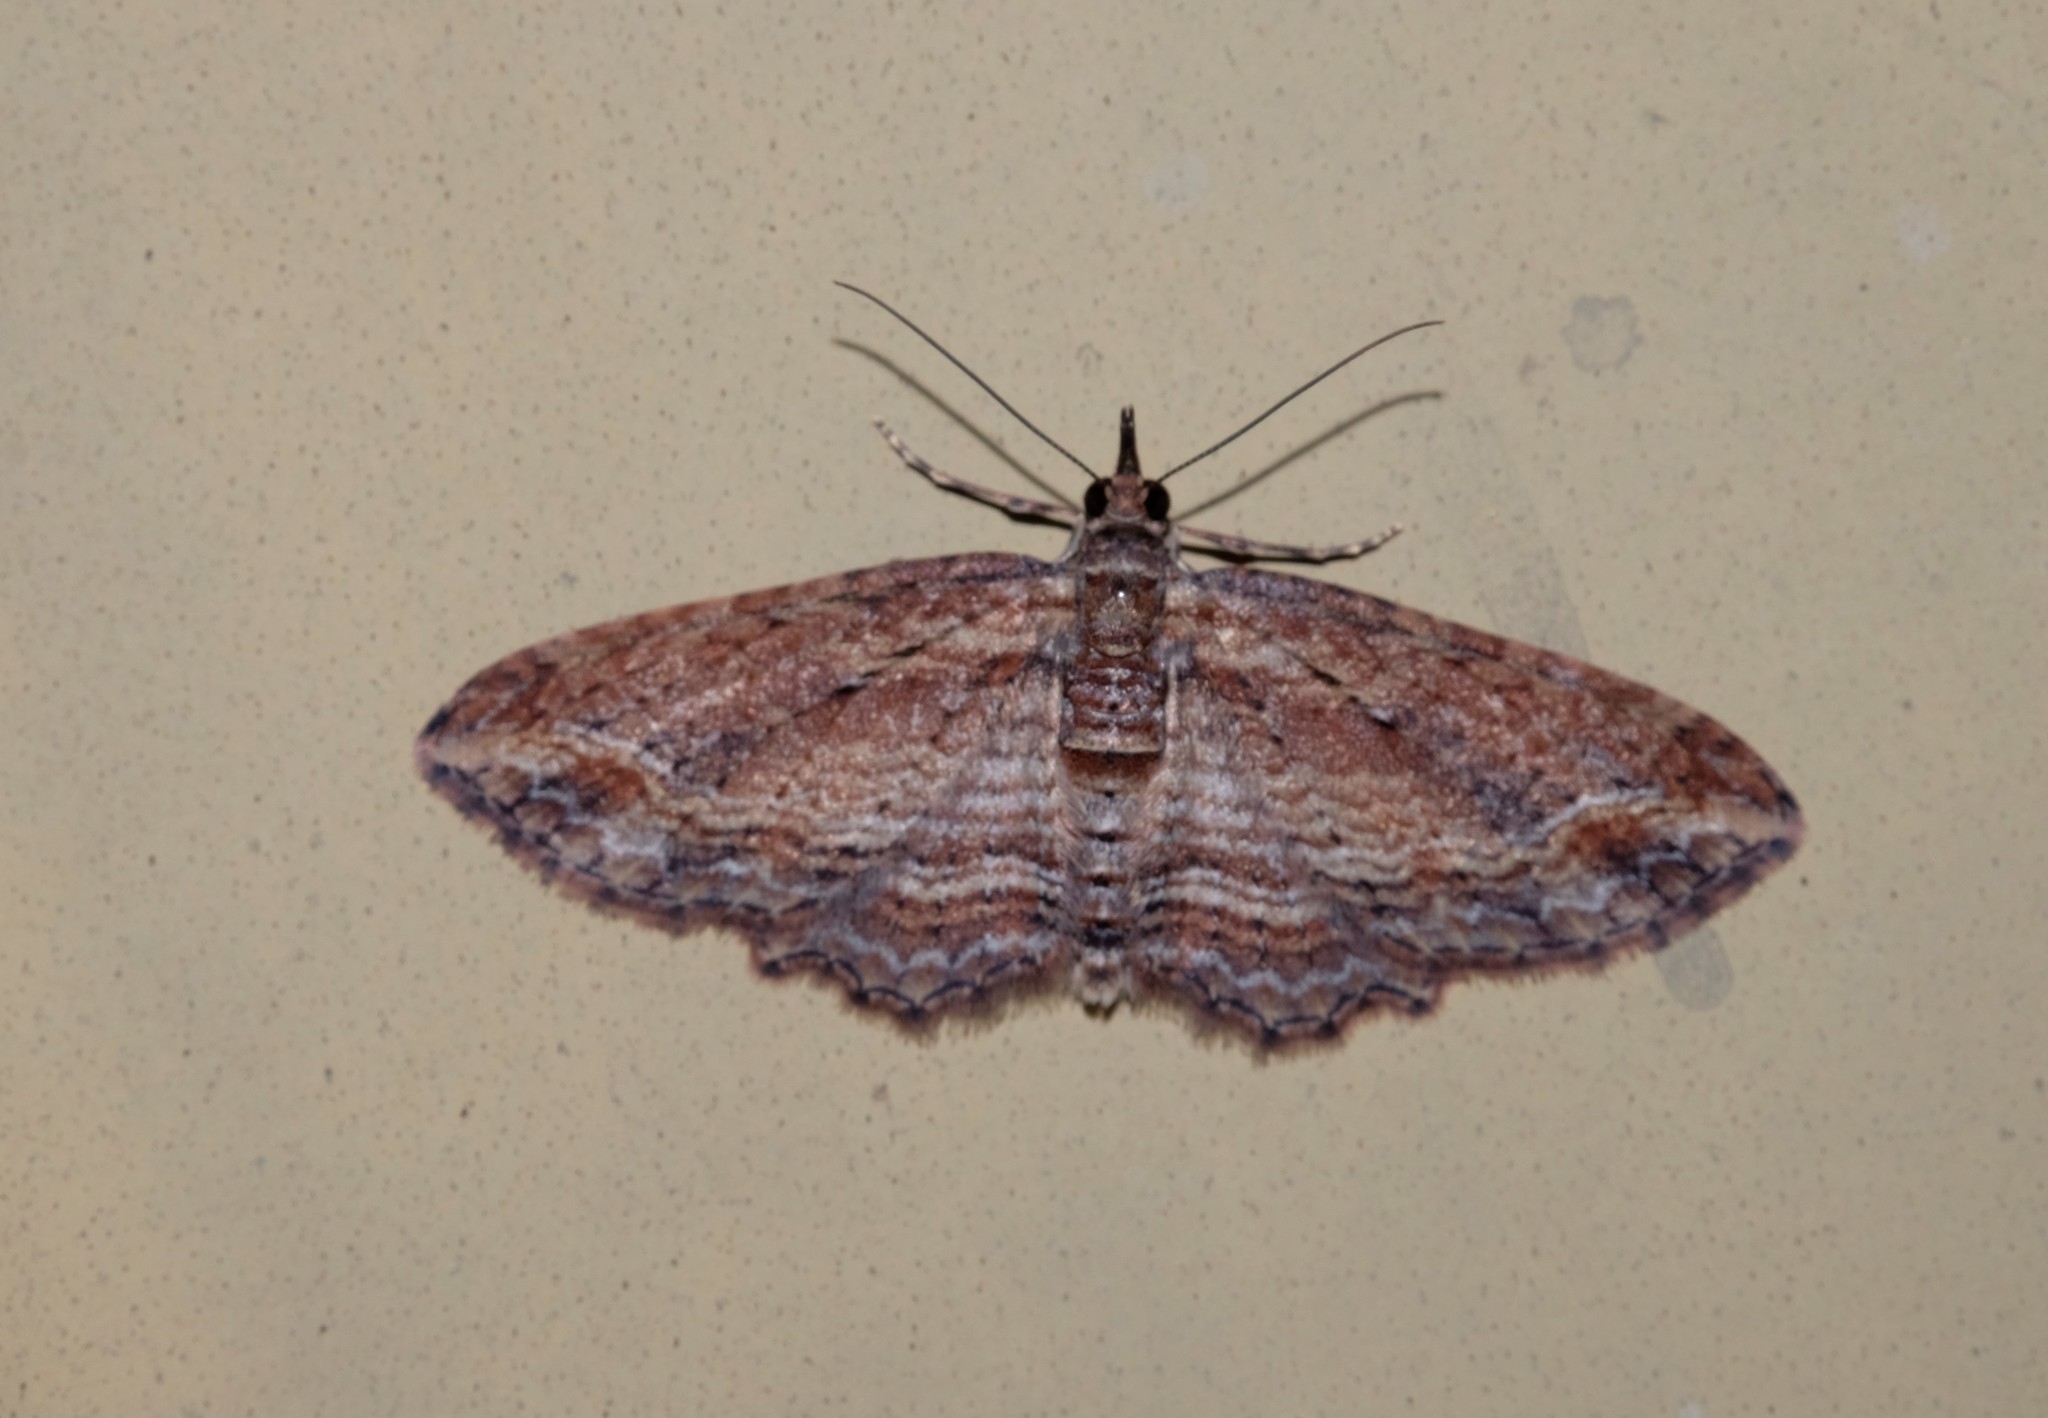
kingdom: Animalia
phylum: Arthropoda
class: Insecta
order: Lepidoptera
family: Geometridae
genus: Chloroclystis
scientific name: Chloroclystis filata
